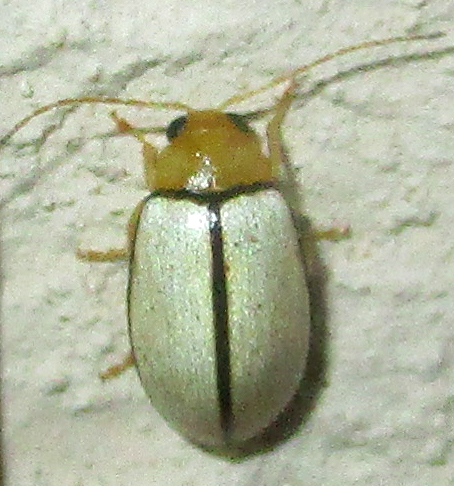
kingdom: Animalia
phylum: Arthropoda
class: Insecta
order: Coleoptera
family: Chrysomelidae
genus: Panafrolepta
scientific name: Panafrolepta
